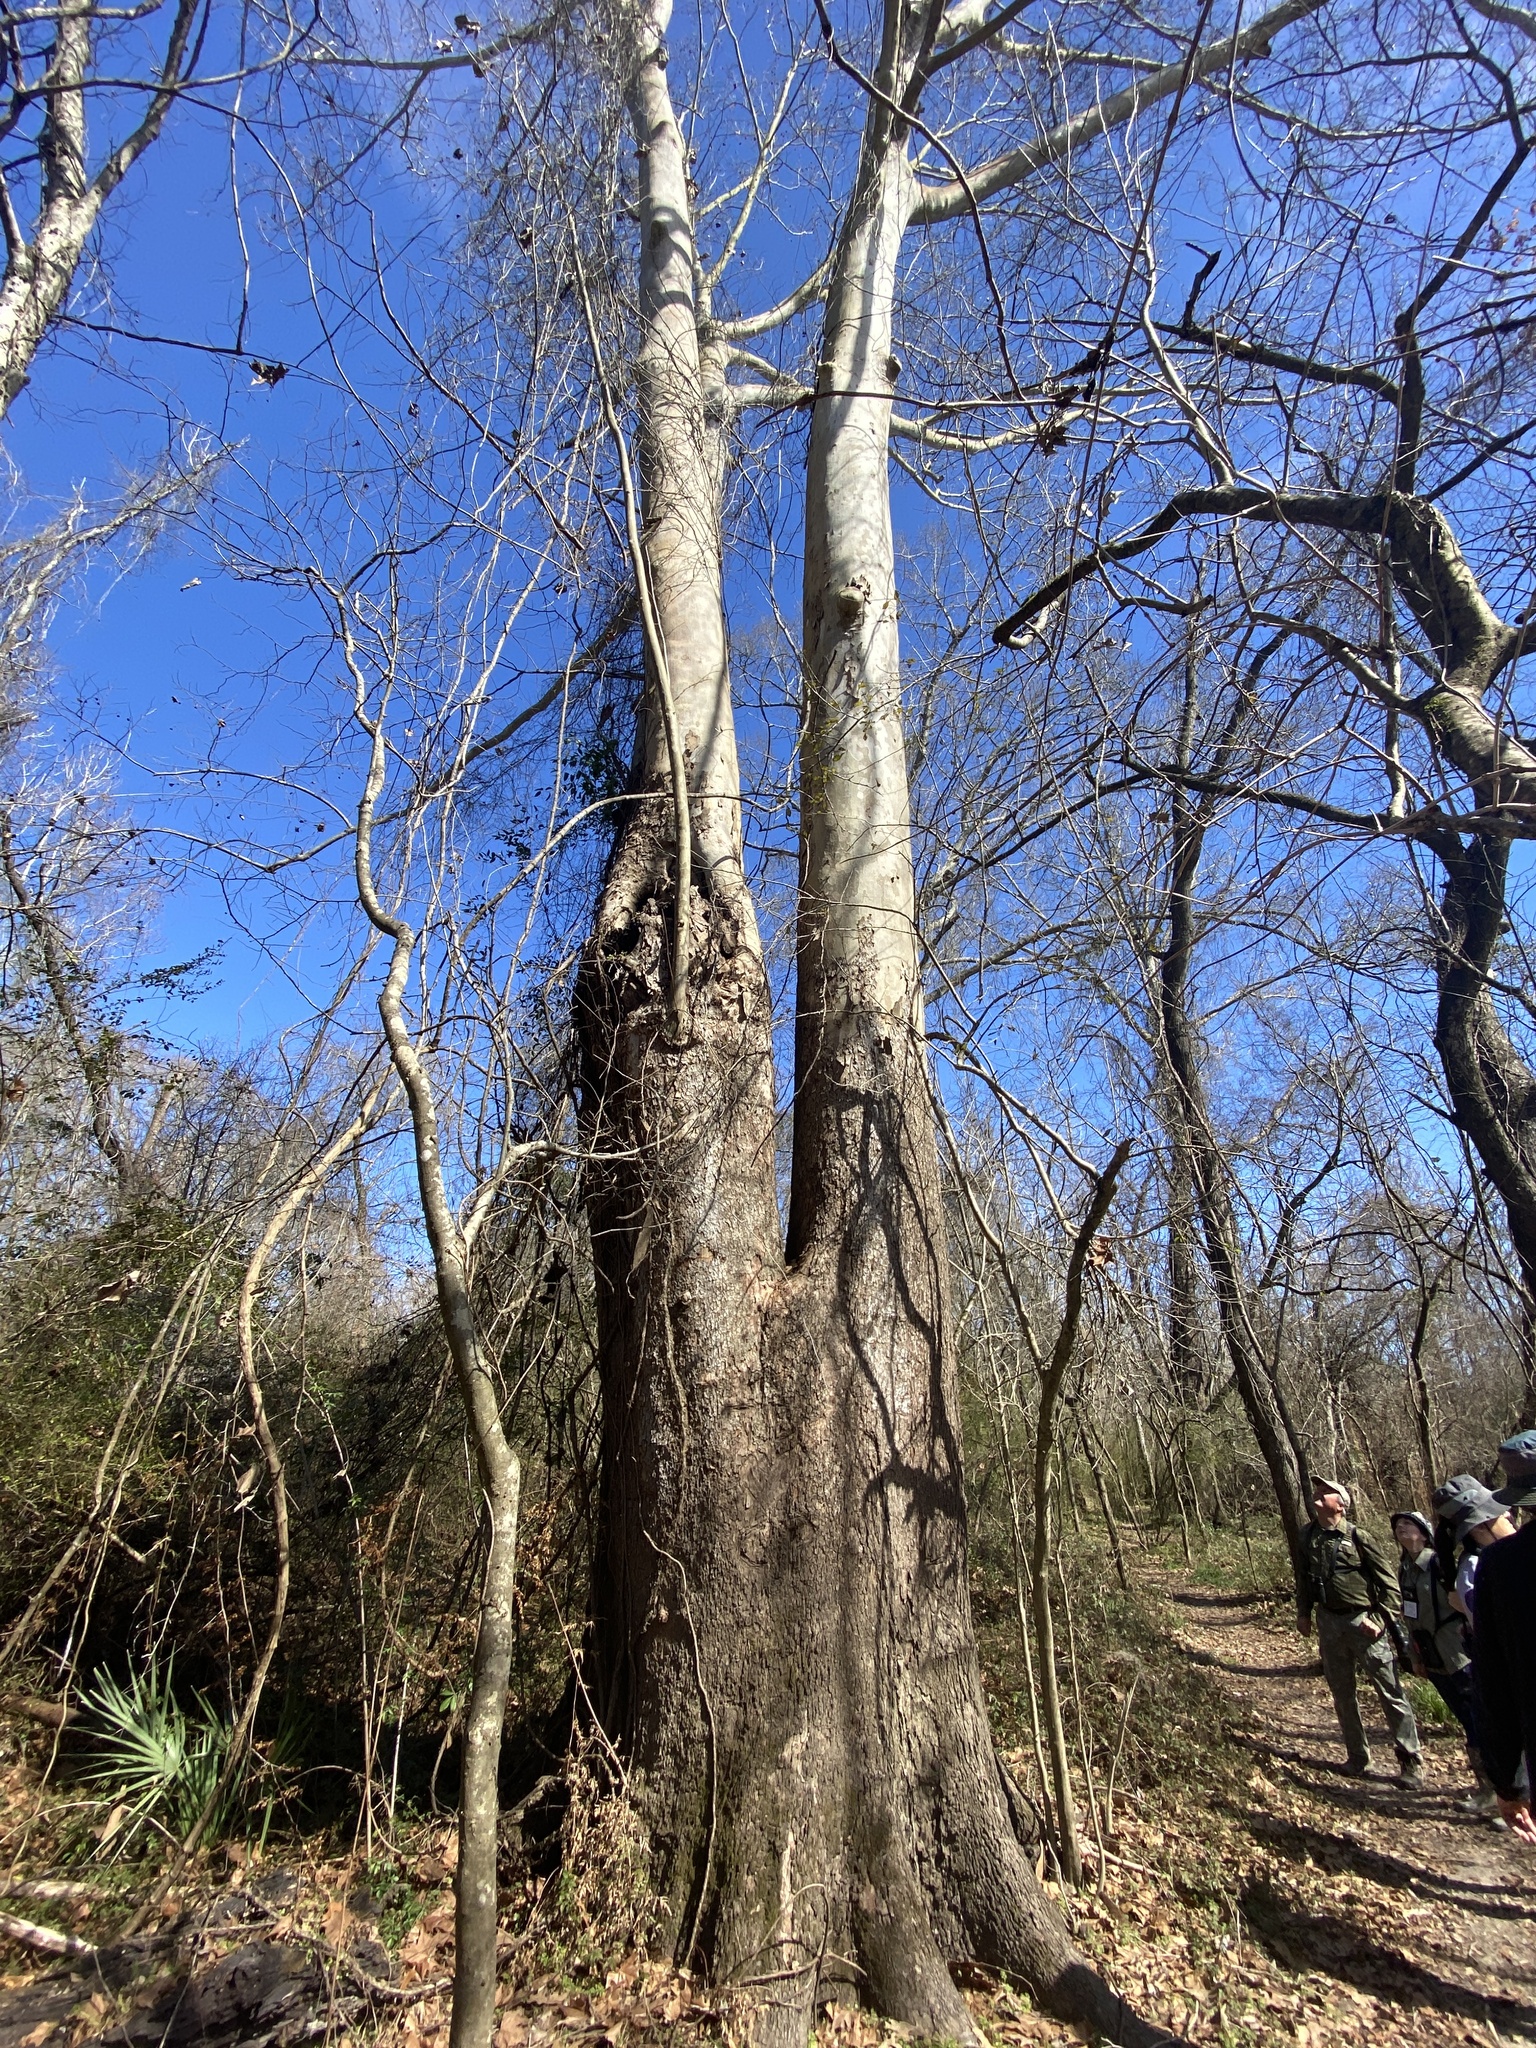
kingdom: Plantae
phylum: Tracheophyta
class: Magnoliopsida
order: Proteales
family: Platanaceae
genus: Platanus
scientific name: Platanus occidentalis
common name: American sycamore
